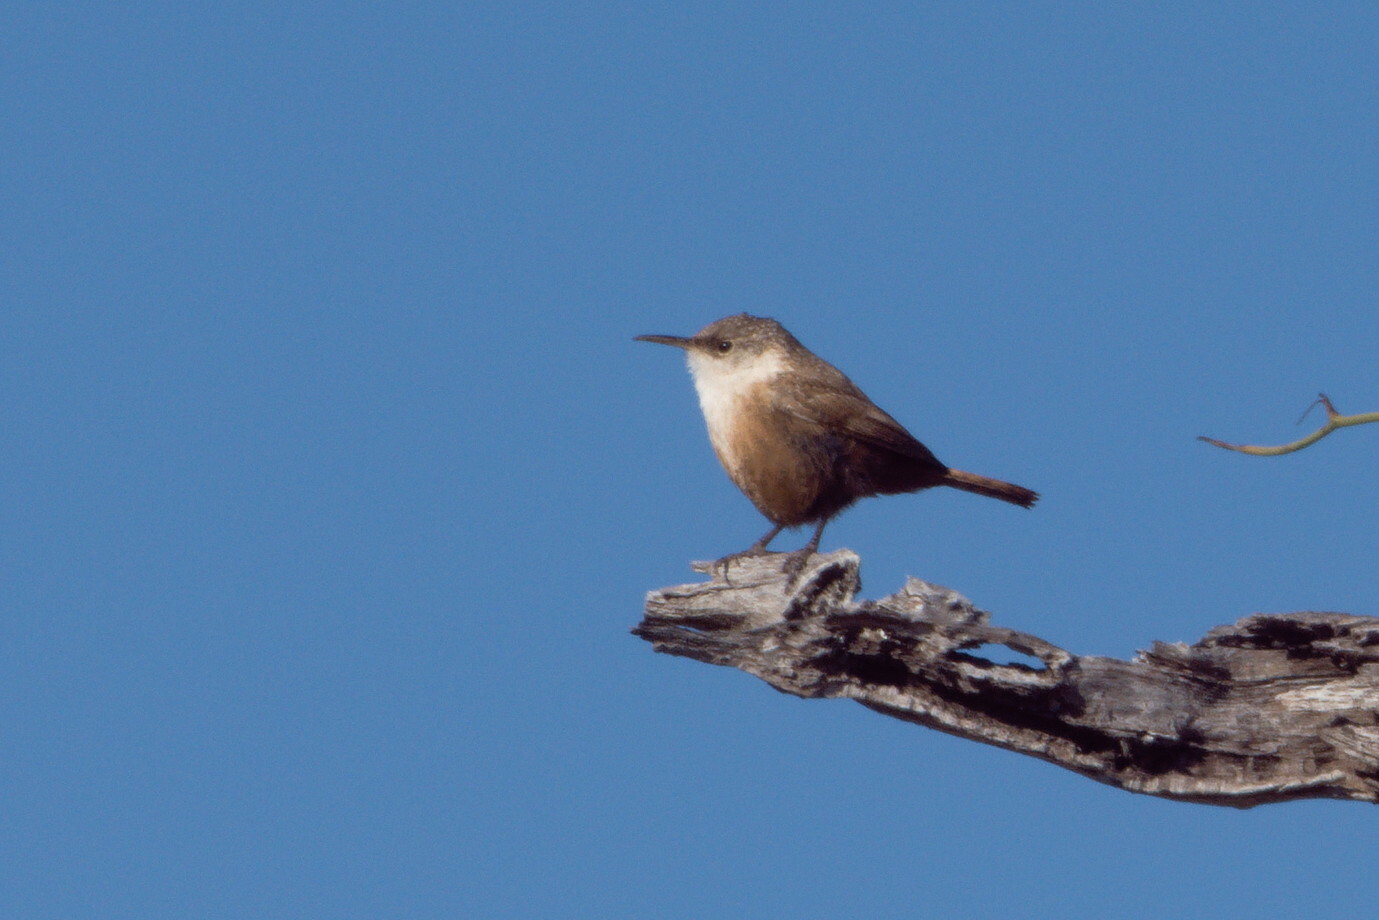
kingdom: Animalia
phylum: Chordata
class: Aves
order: Passeriformes
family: Troglodytidae
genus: Catherpes
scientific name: Catherpes mexicanus
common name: Canyon wren
